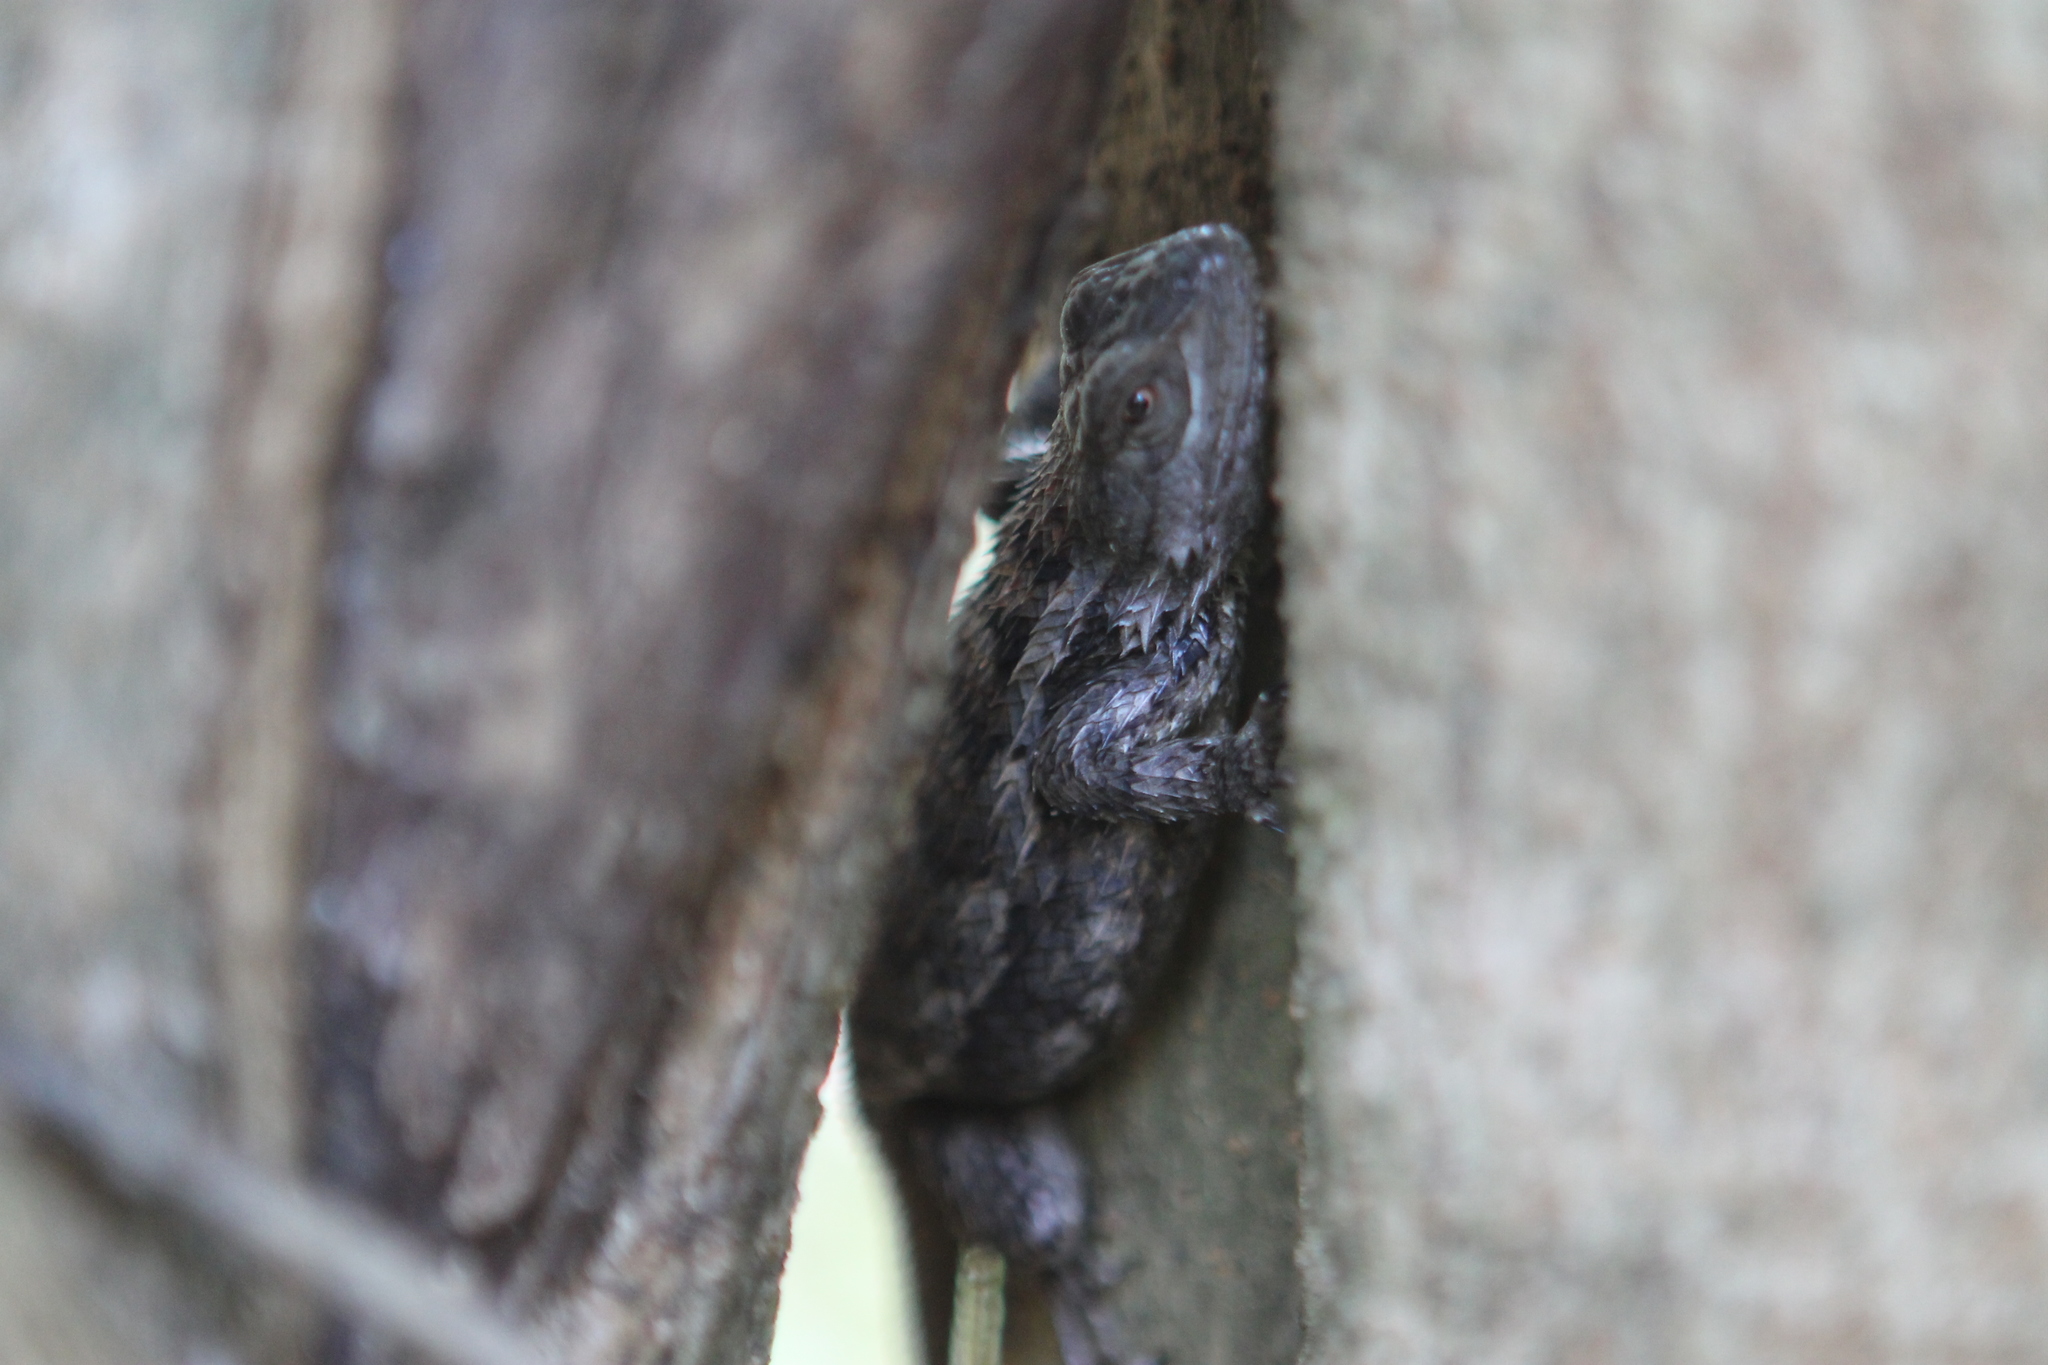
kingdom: Animalia
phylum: Chordata
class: Squamata
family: Phrynosomatidae
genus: Sceloporus
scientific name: Sceloporus olivaceus
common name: Texas spiny lizard
